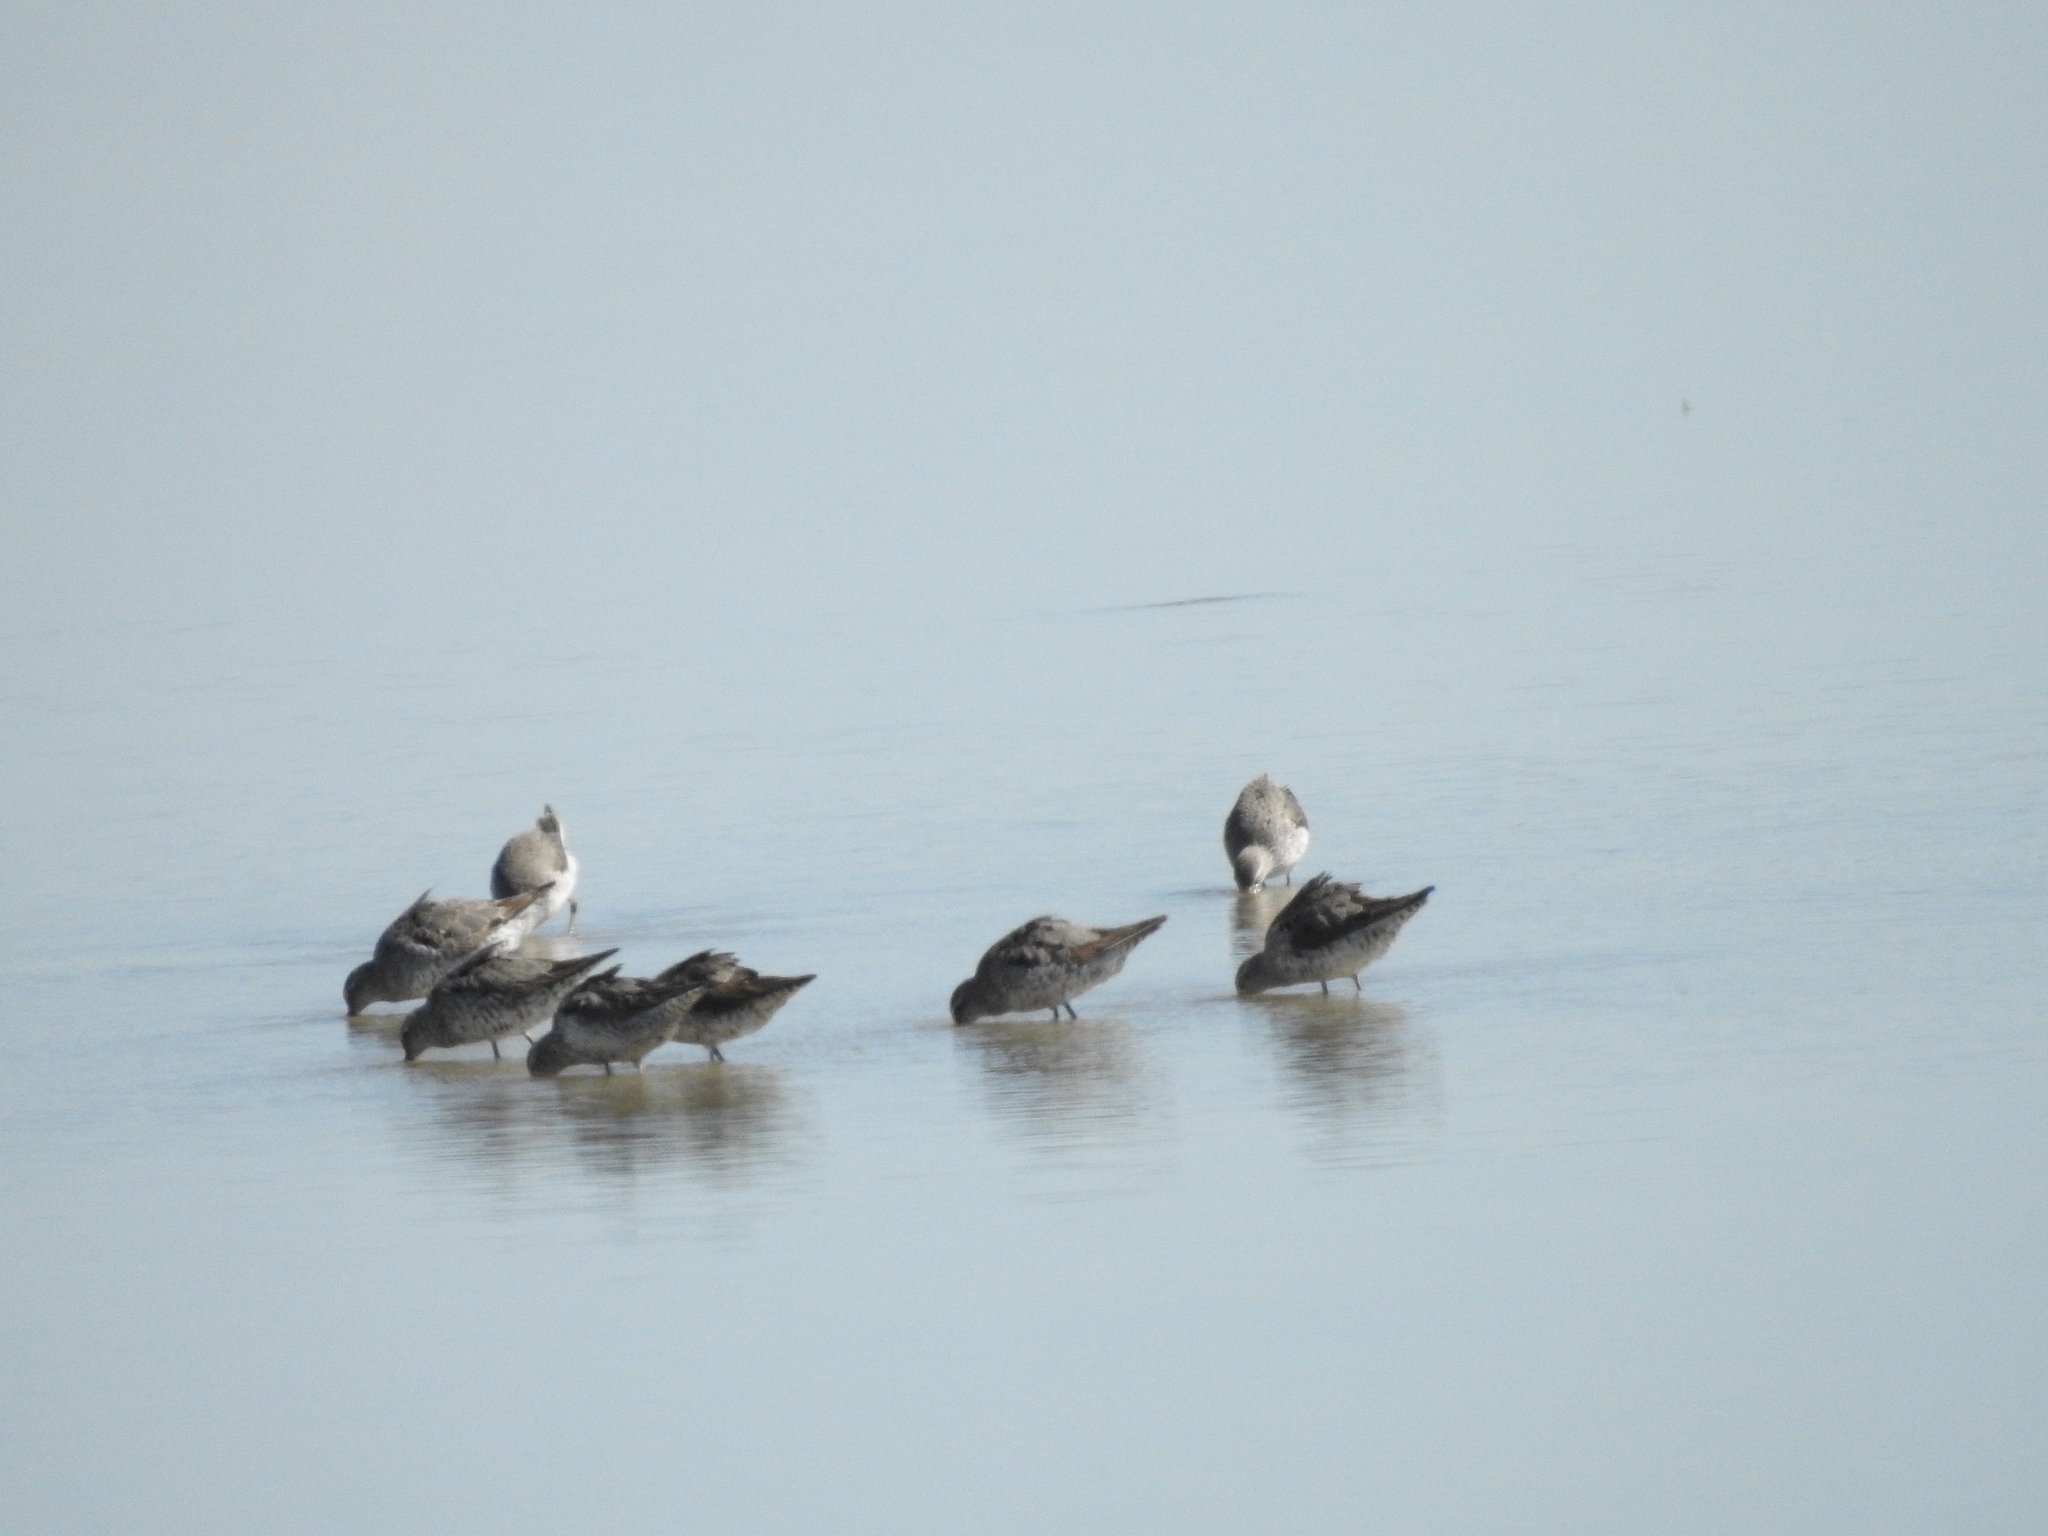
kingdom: Animalia
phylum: Chordata
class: Aves
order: Charadriiformes
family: Scolopacidae
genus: Calidris
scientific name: Calidris himantopus
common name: Stilt sandpiper
